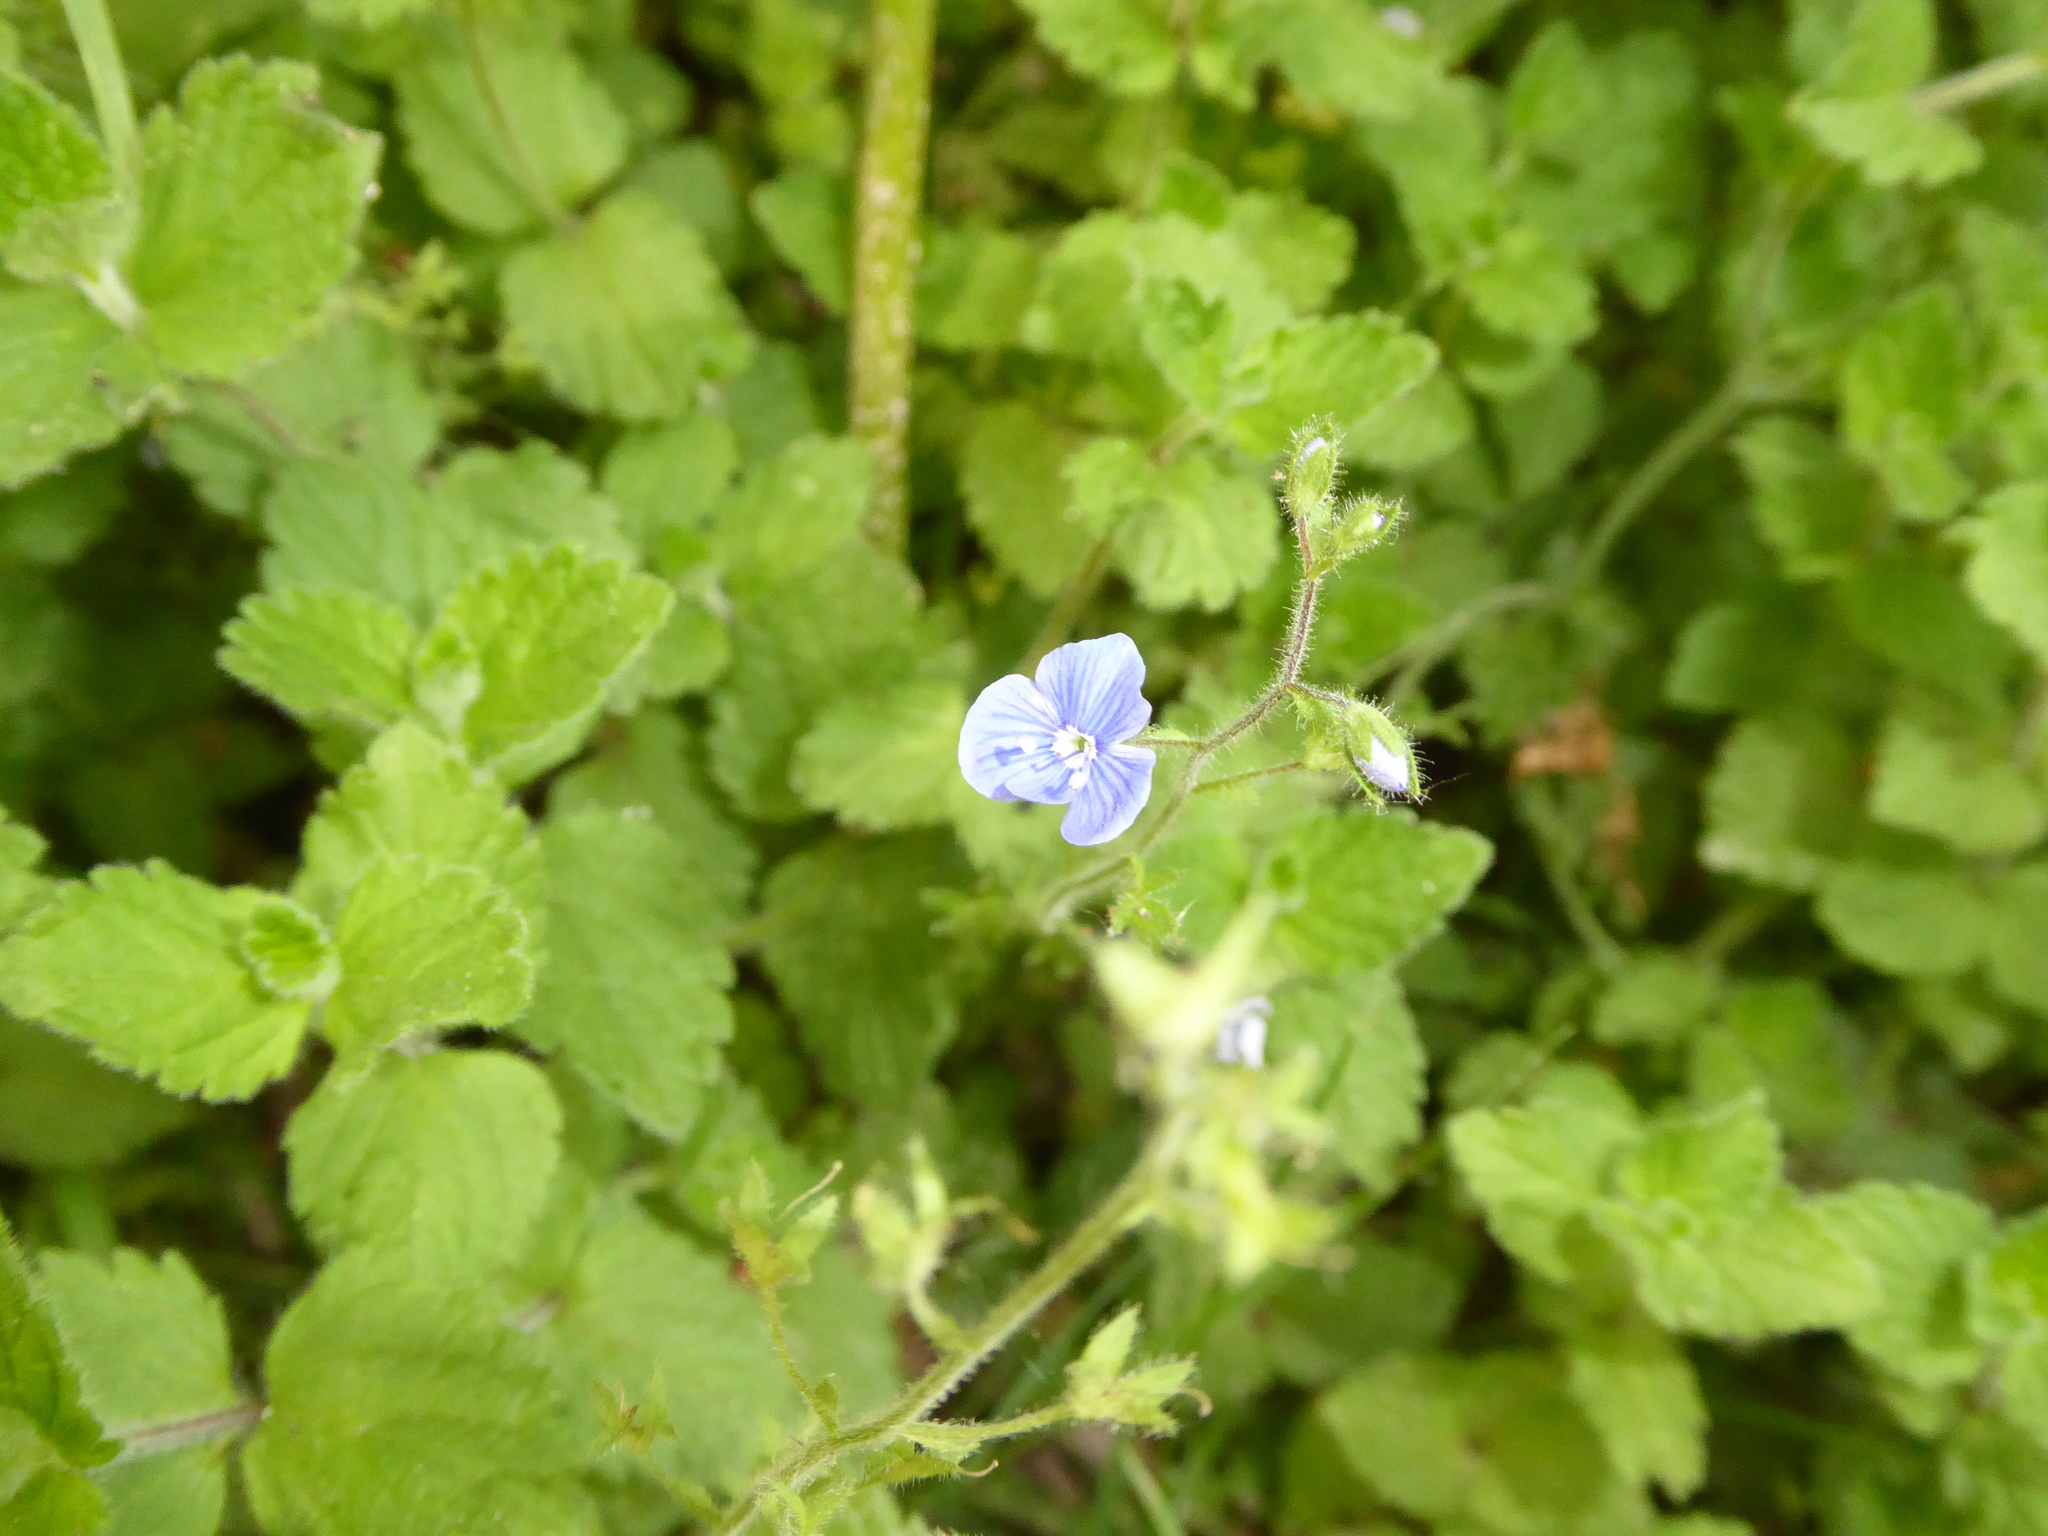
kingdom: Plantae
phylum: Tracheophyta
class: Magnoliopsida
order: Lamiales
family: Plantaginaceae
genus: Veronica
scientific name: Veronica chamaedrys
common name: Germander speedwell
